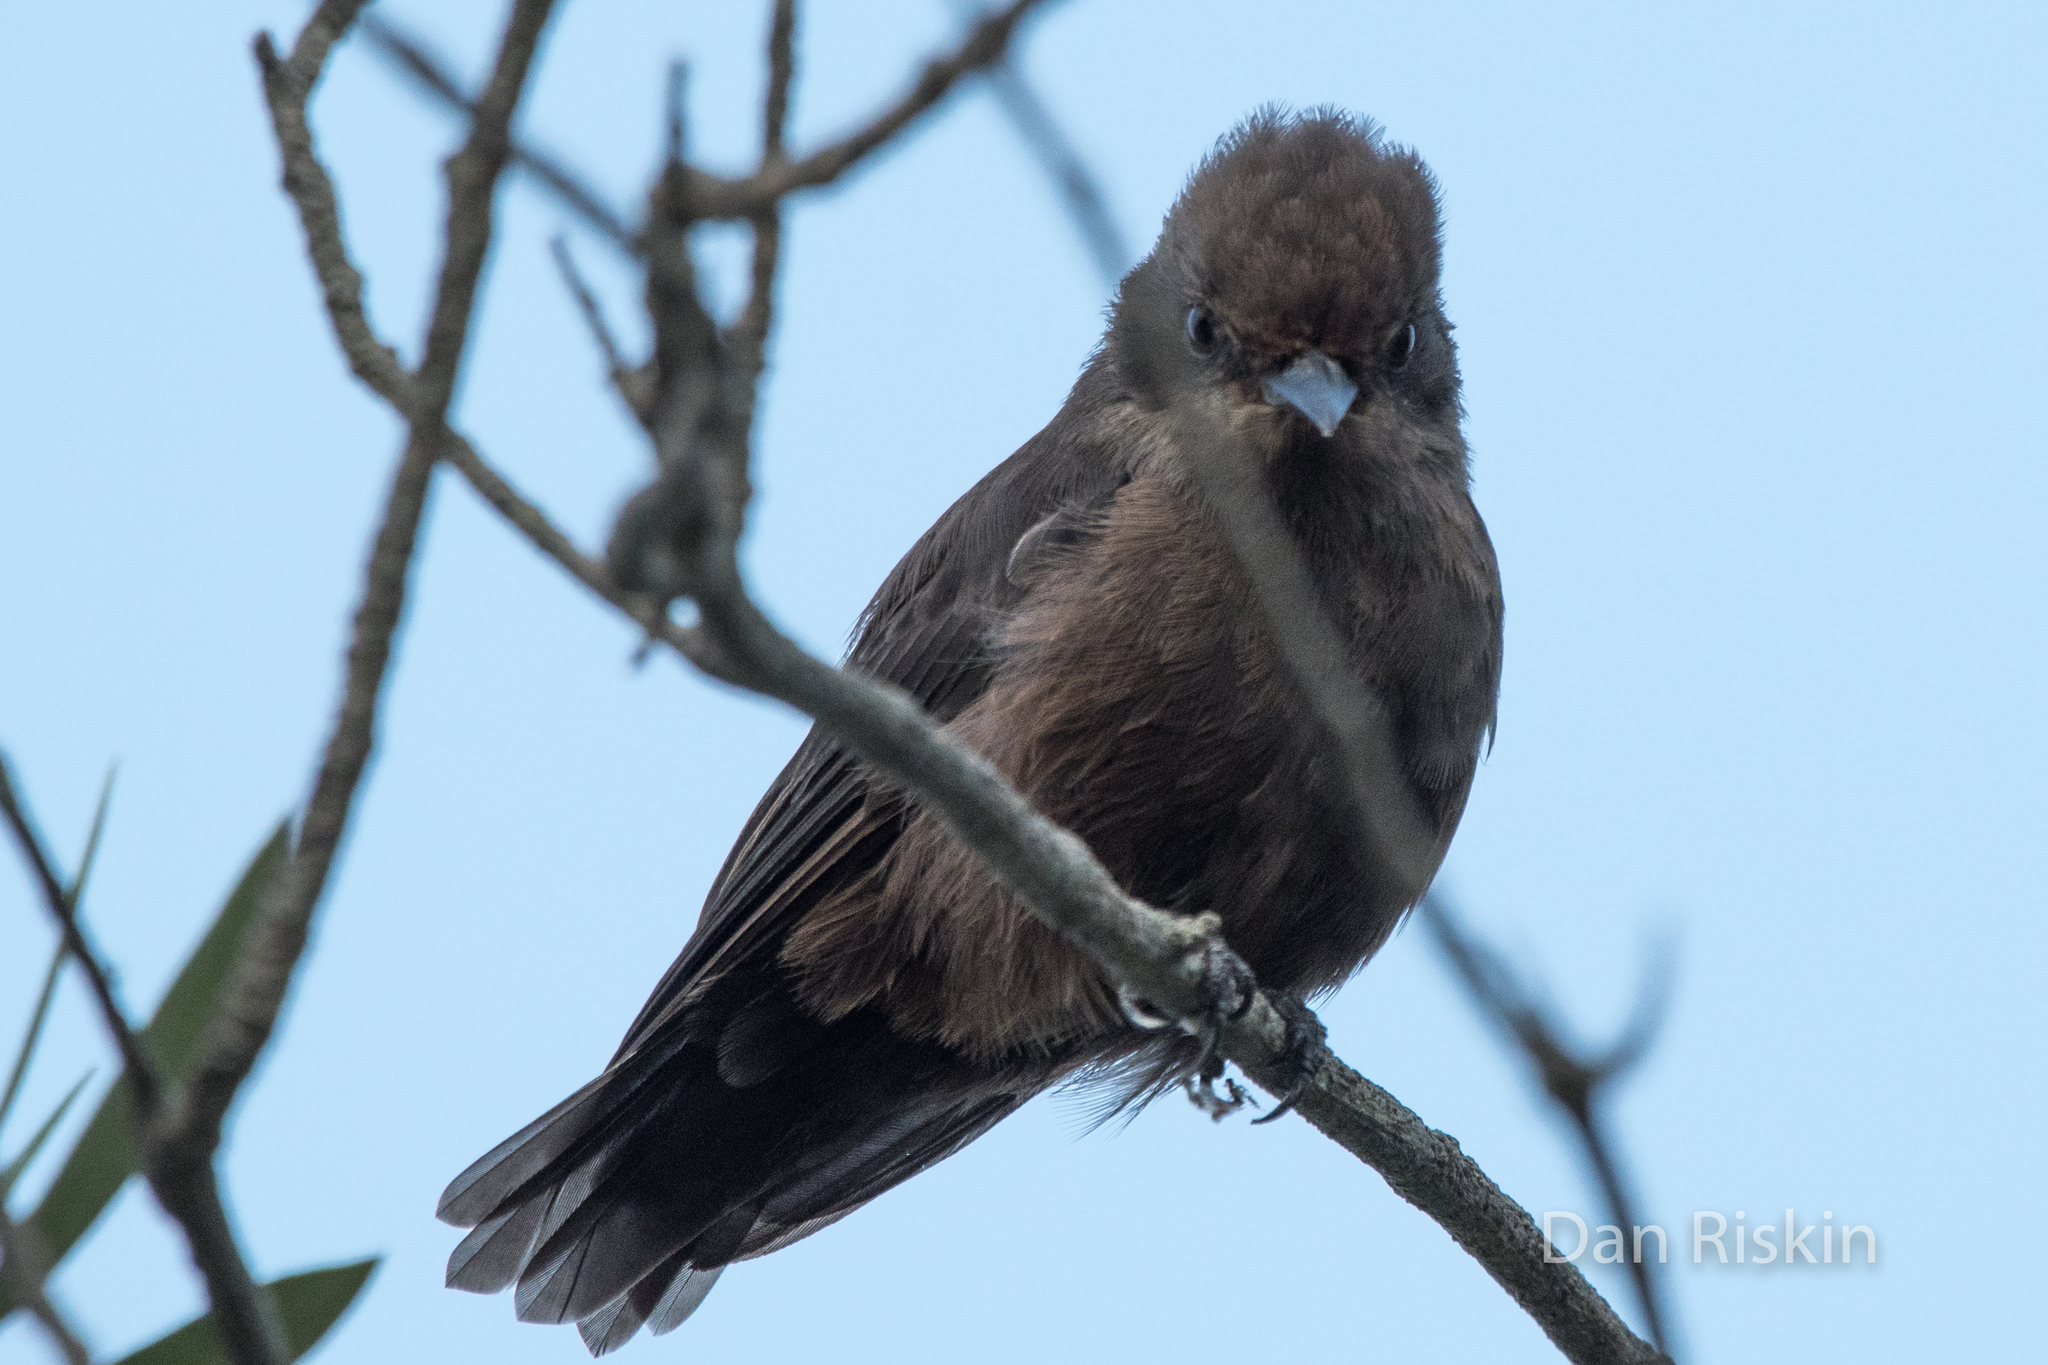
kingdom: Animalia
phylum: Chordata
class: Aves
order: Passeriformes
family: Tyrannidae
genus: Pyrocephalus
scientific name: Pyrocephalus rubinus
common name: Vermilion flycatcher
